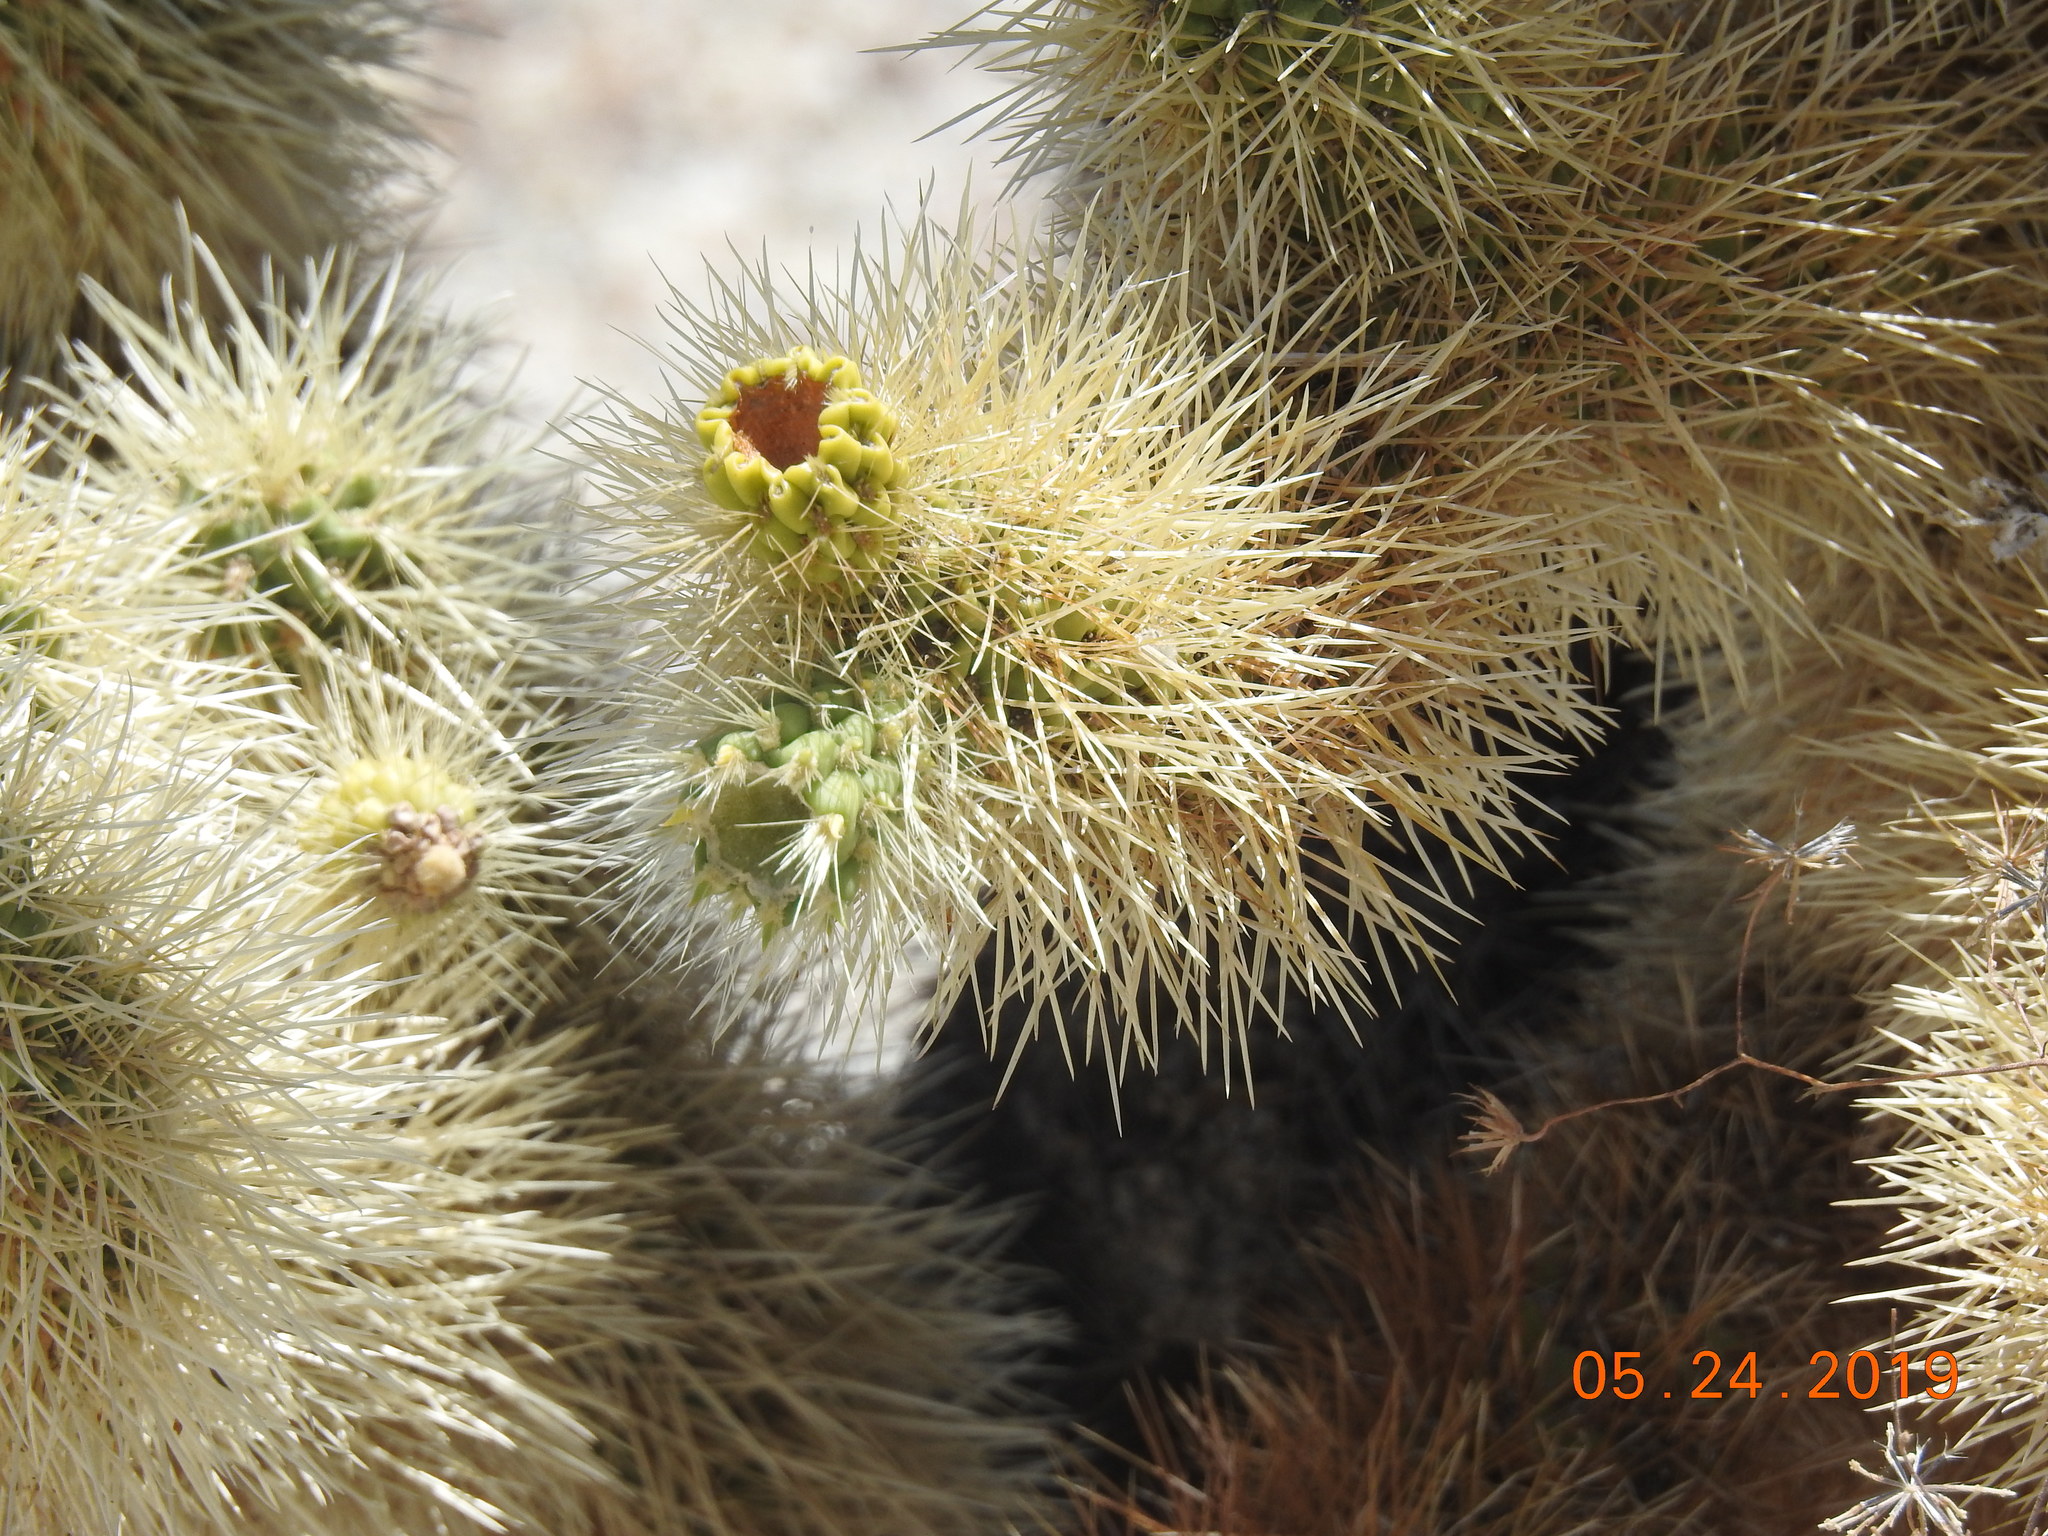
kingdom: Plantae
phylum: Tracheophyta
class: Magnoliopsida
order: Caryophyllales
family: Cactaceae
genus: Cylindropuntia
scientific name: Cylindropuntia fosbergii
